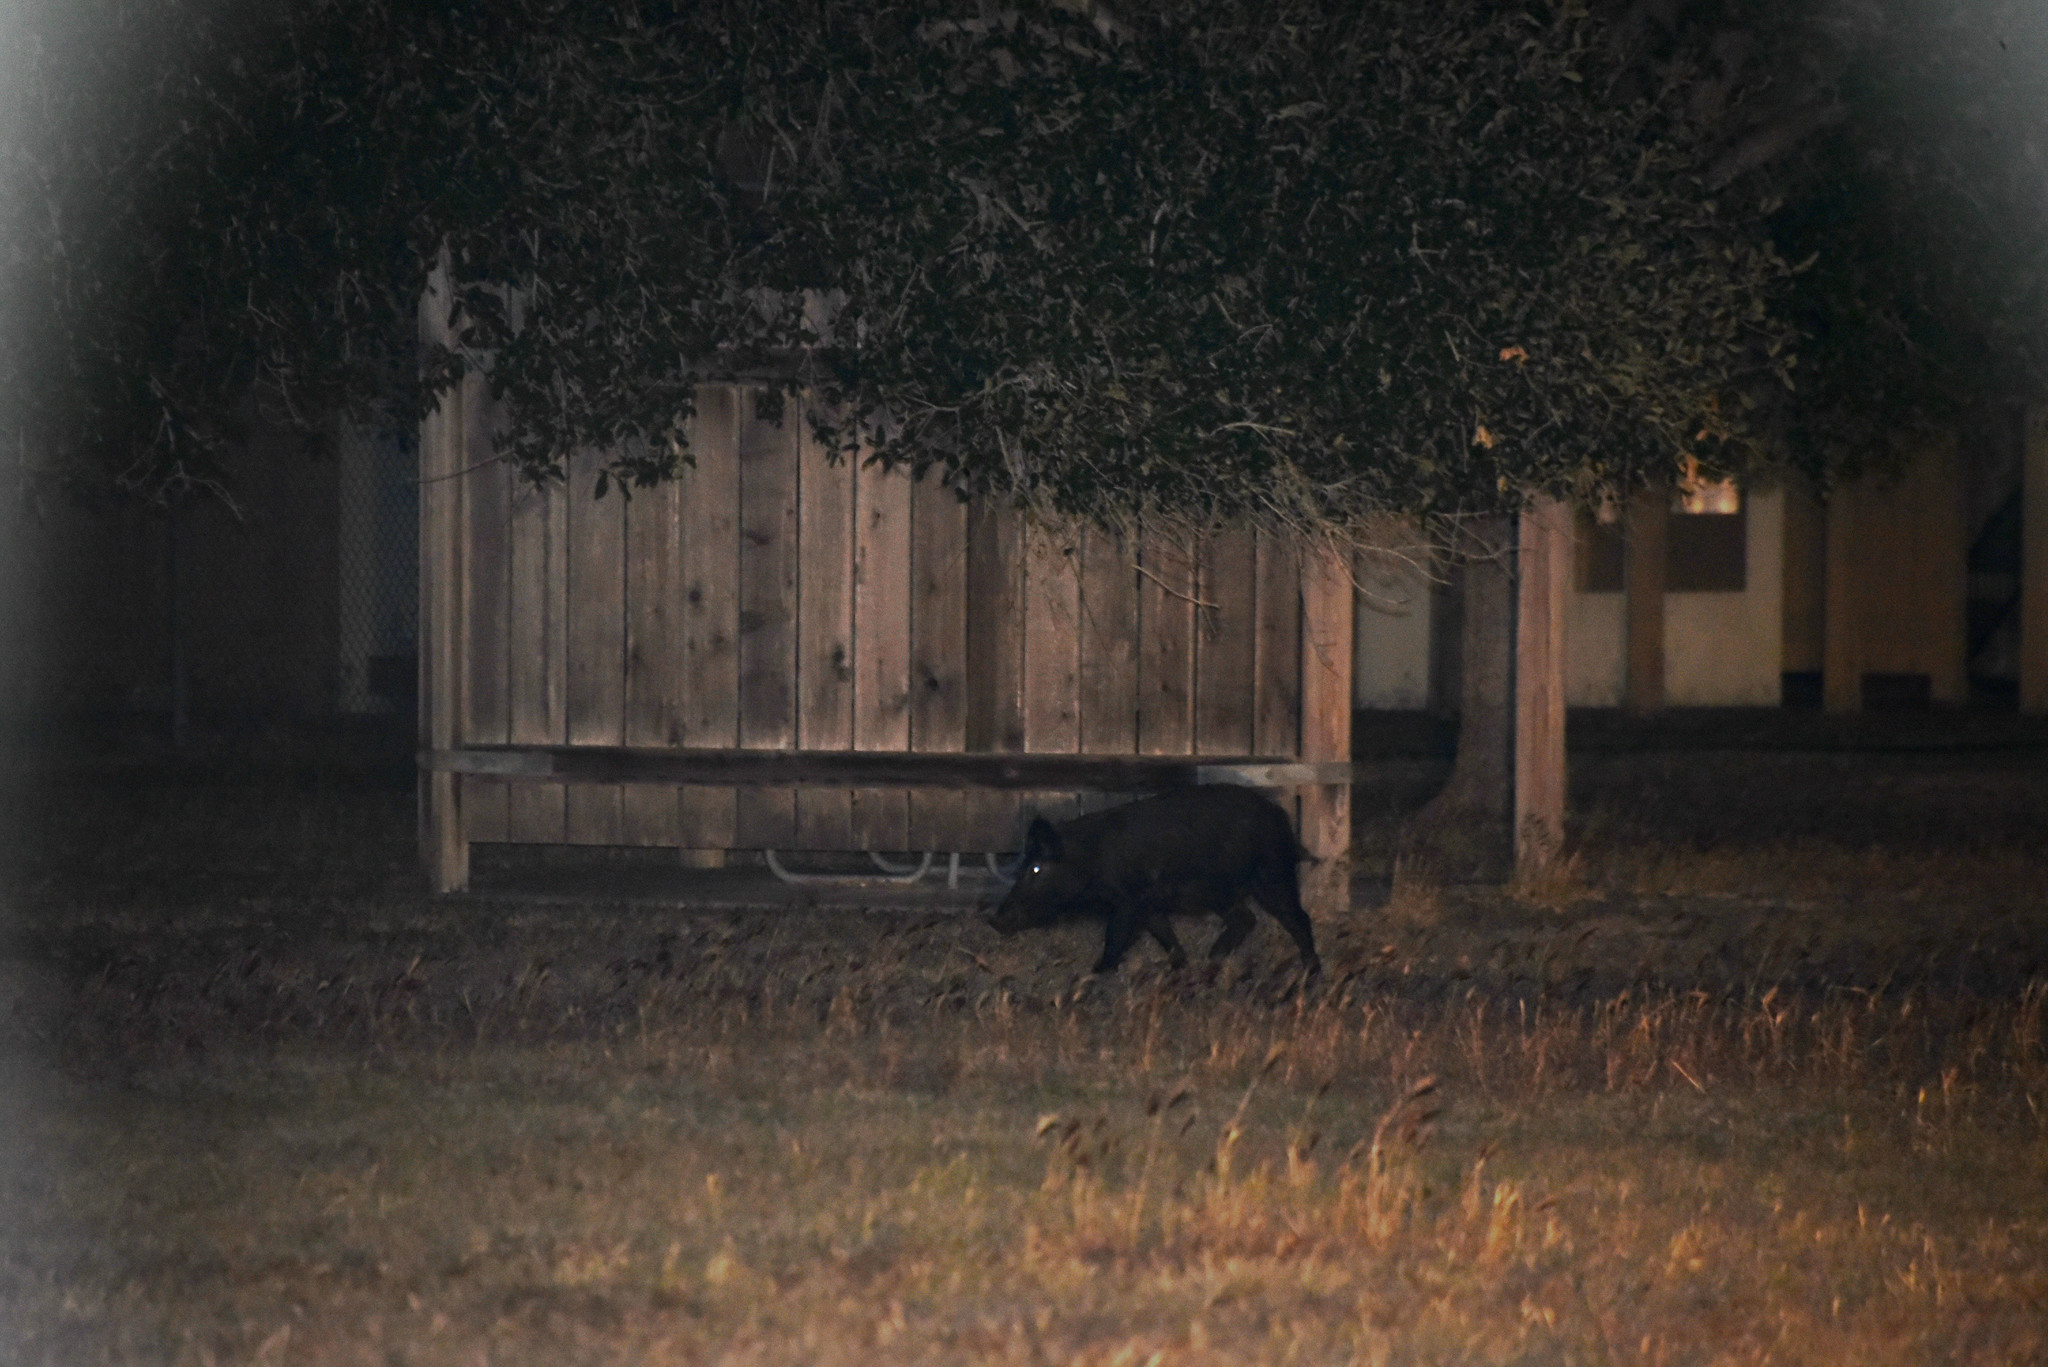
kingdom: Animalia
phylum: Chordata
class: Mammalia
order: Artiodactyla
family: Suidae
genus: Sus
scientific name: Sus scrofa
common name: Wild boar
